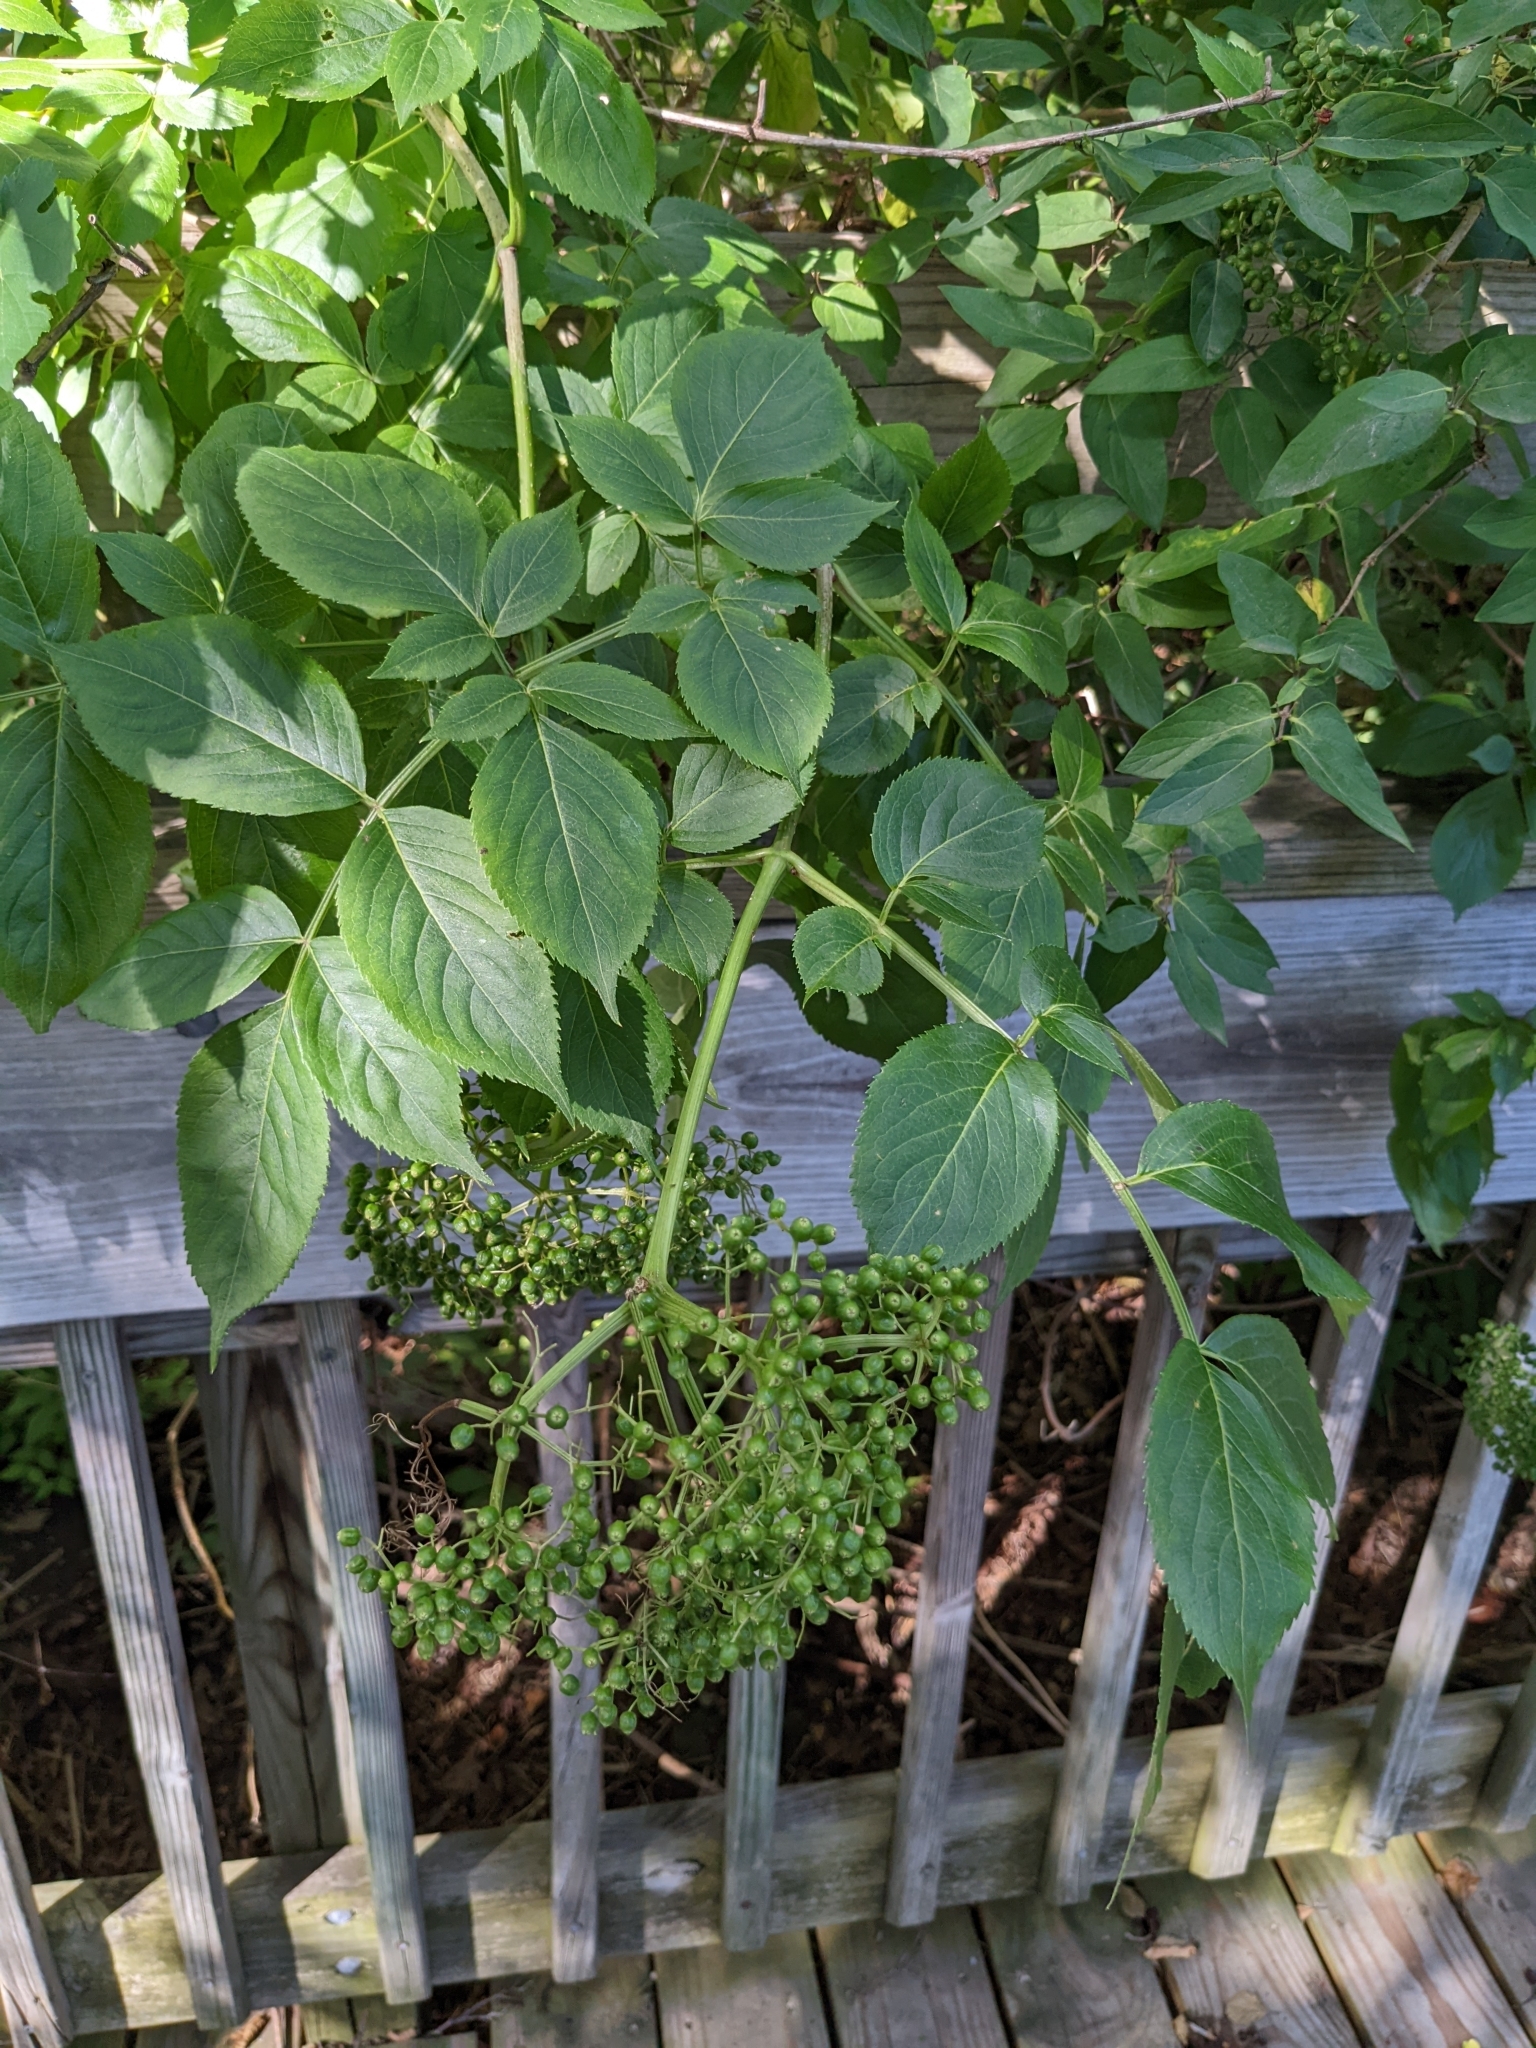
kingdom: Plantae
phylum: Tracheophyta
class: Magnoliopsida
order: Dipsacales
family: Viburnaceae
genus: Sambucus
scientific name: Sambucus nigra
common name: Elder
